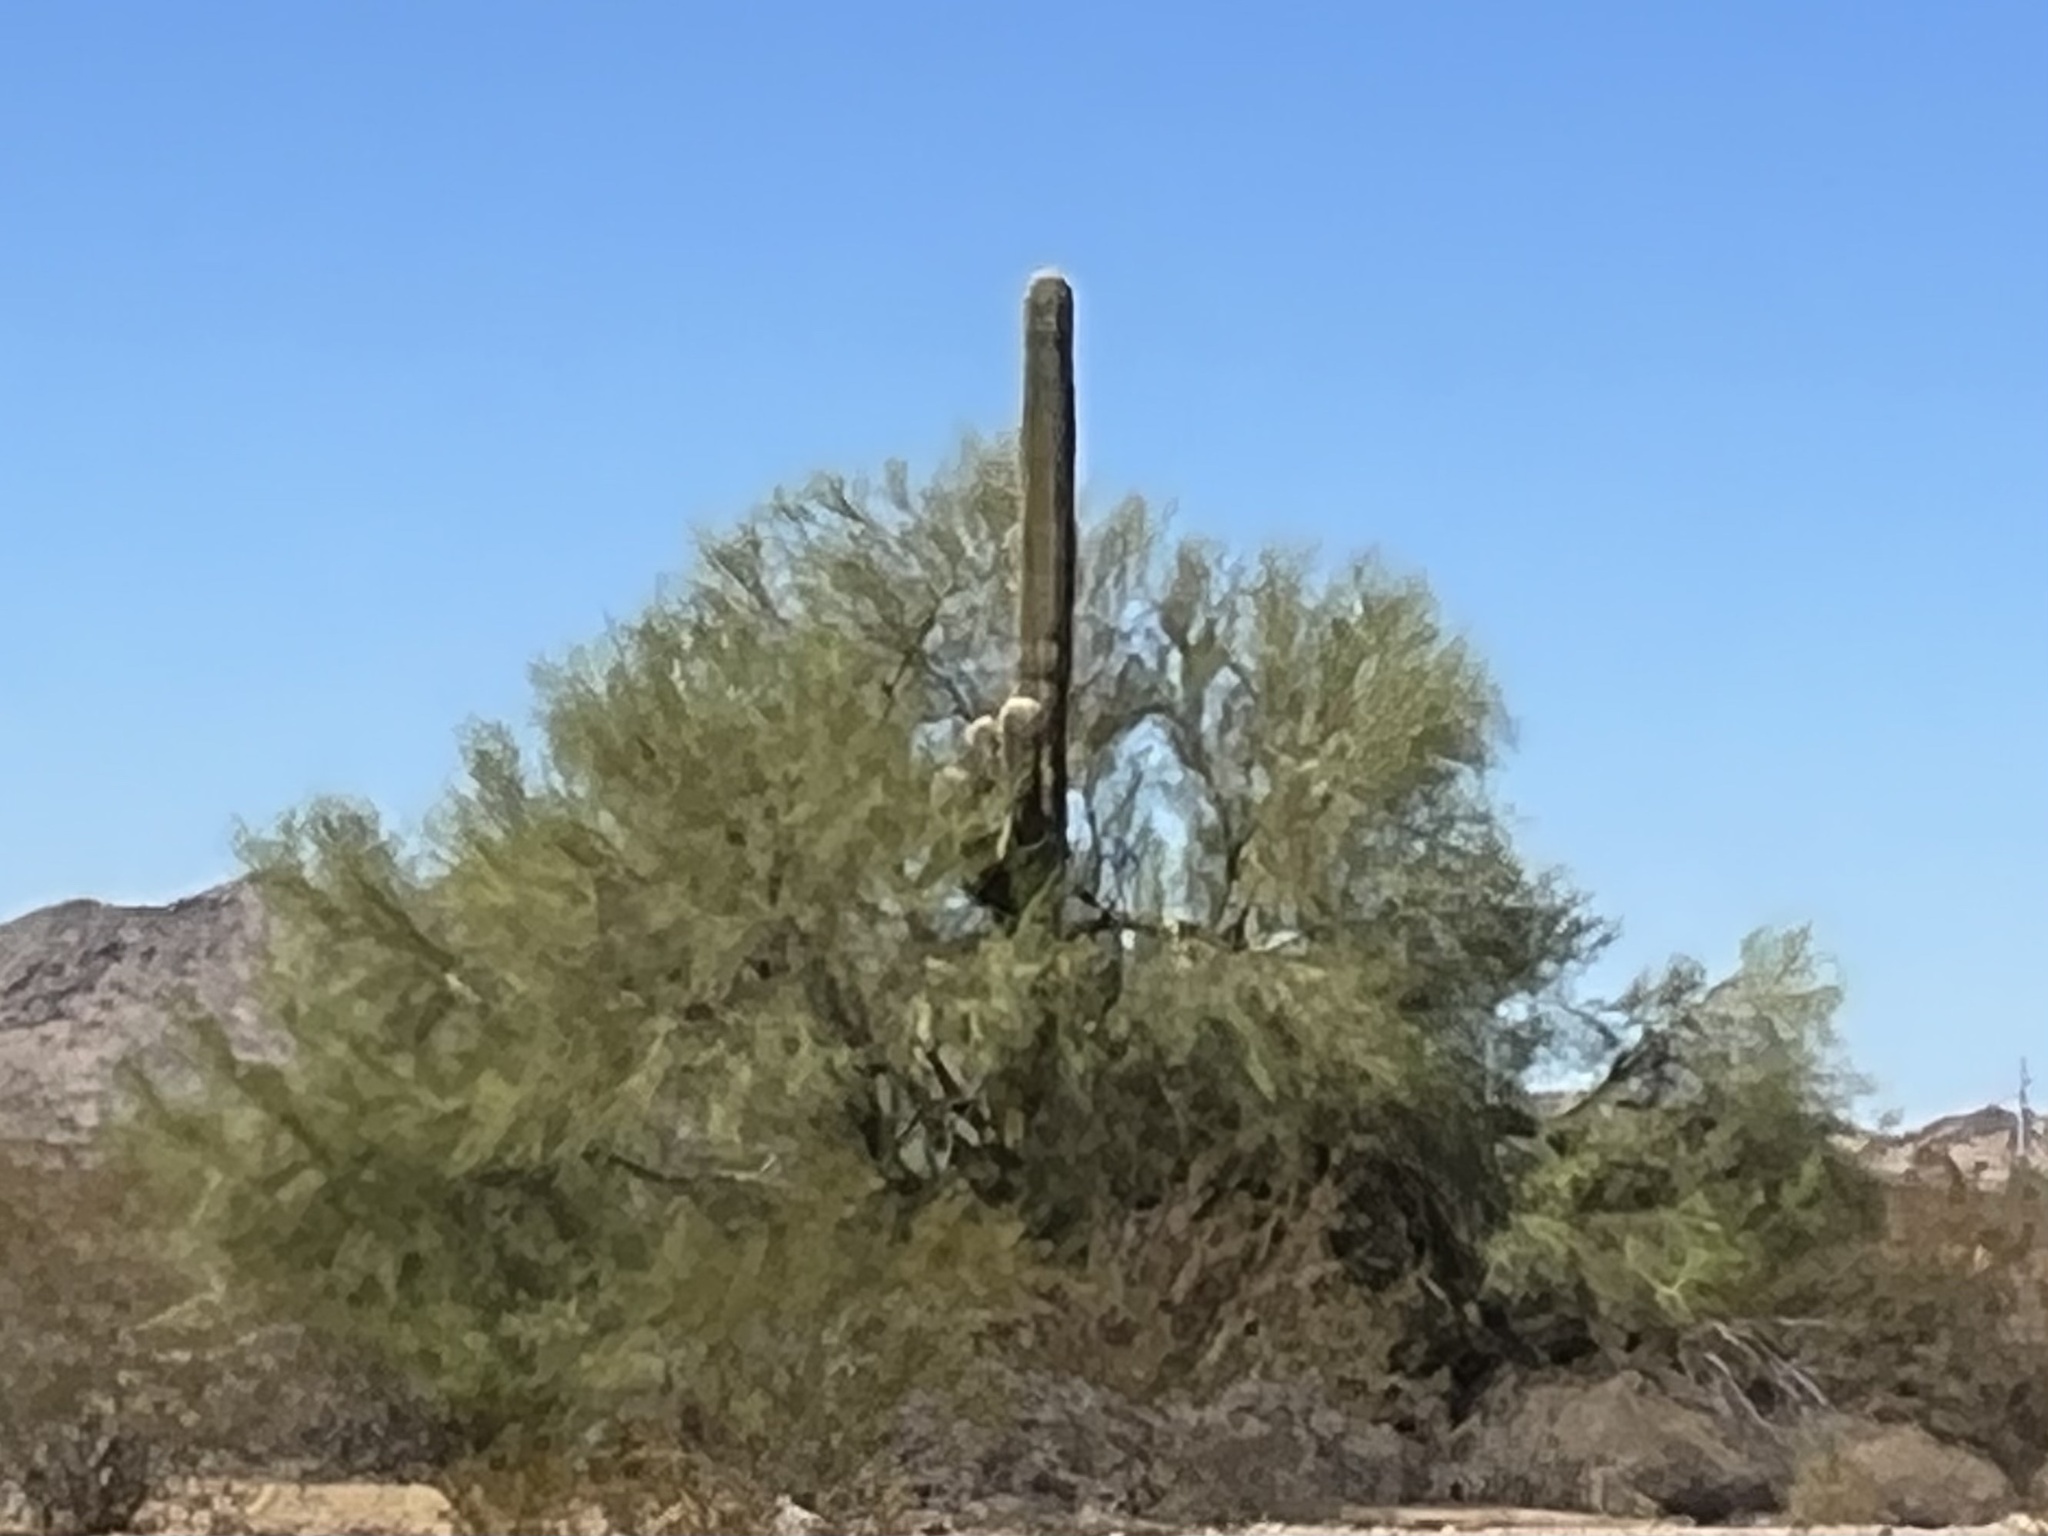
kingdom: Plantae
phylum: Tracheophyta
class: Magnoliopsida
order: Caryophyllales
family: Cactaceae
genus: Carnegiea
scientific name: Carnegiea gigantea
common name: Saguaro
